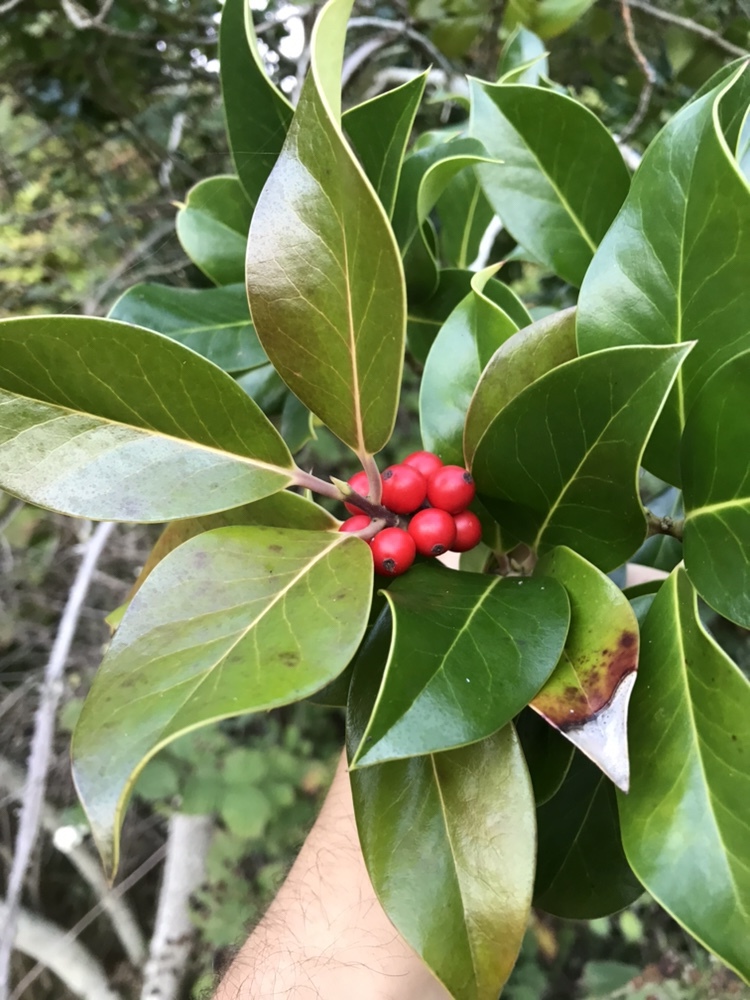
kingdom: Plantae
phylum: Tracheophyta
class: Magnoliopsida
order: Aquifoliales
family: Aquifoliaceae
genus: Ilex
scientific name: Ilex aquifolium
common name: English holly
